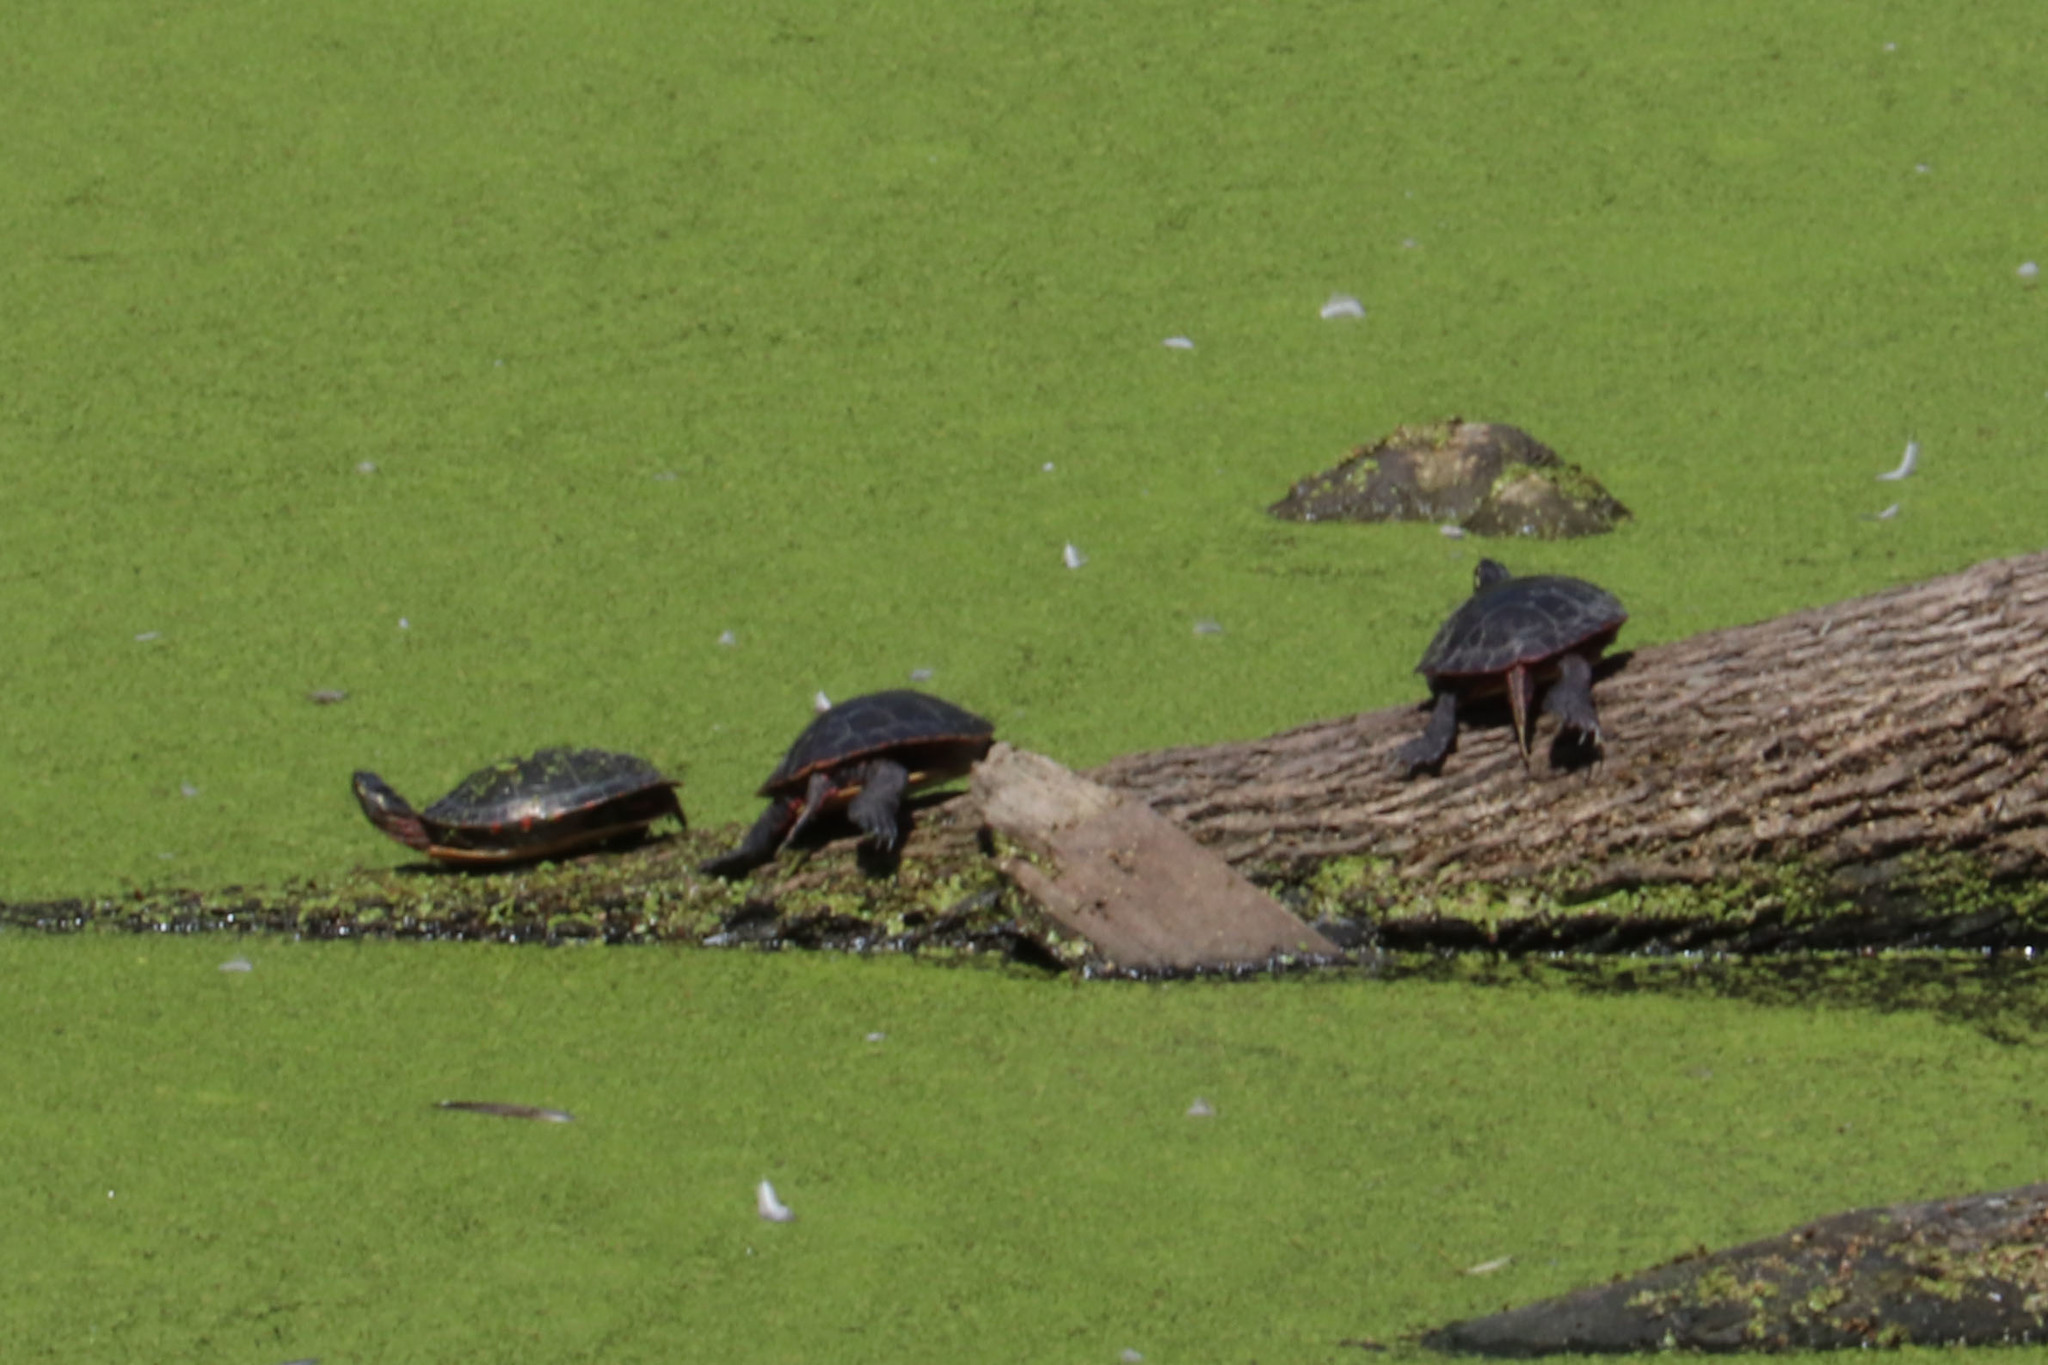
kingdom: Animalia
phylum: Chordata
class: Testudines
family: Emydidae
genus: Chrysemys
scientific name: Chrysemys picta
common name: Painted turtle
